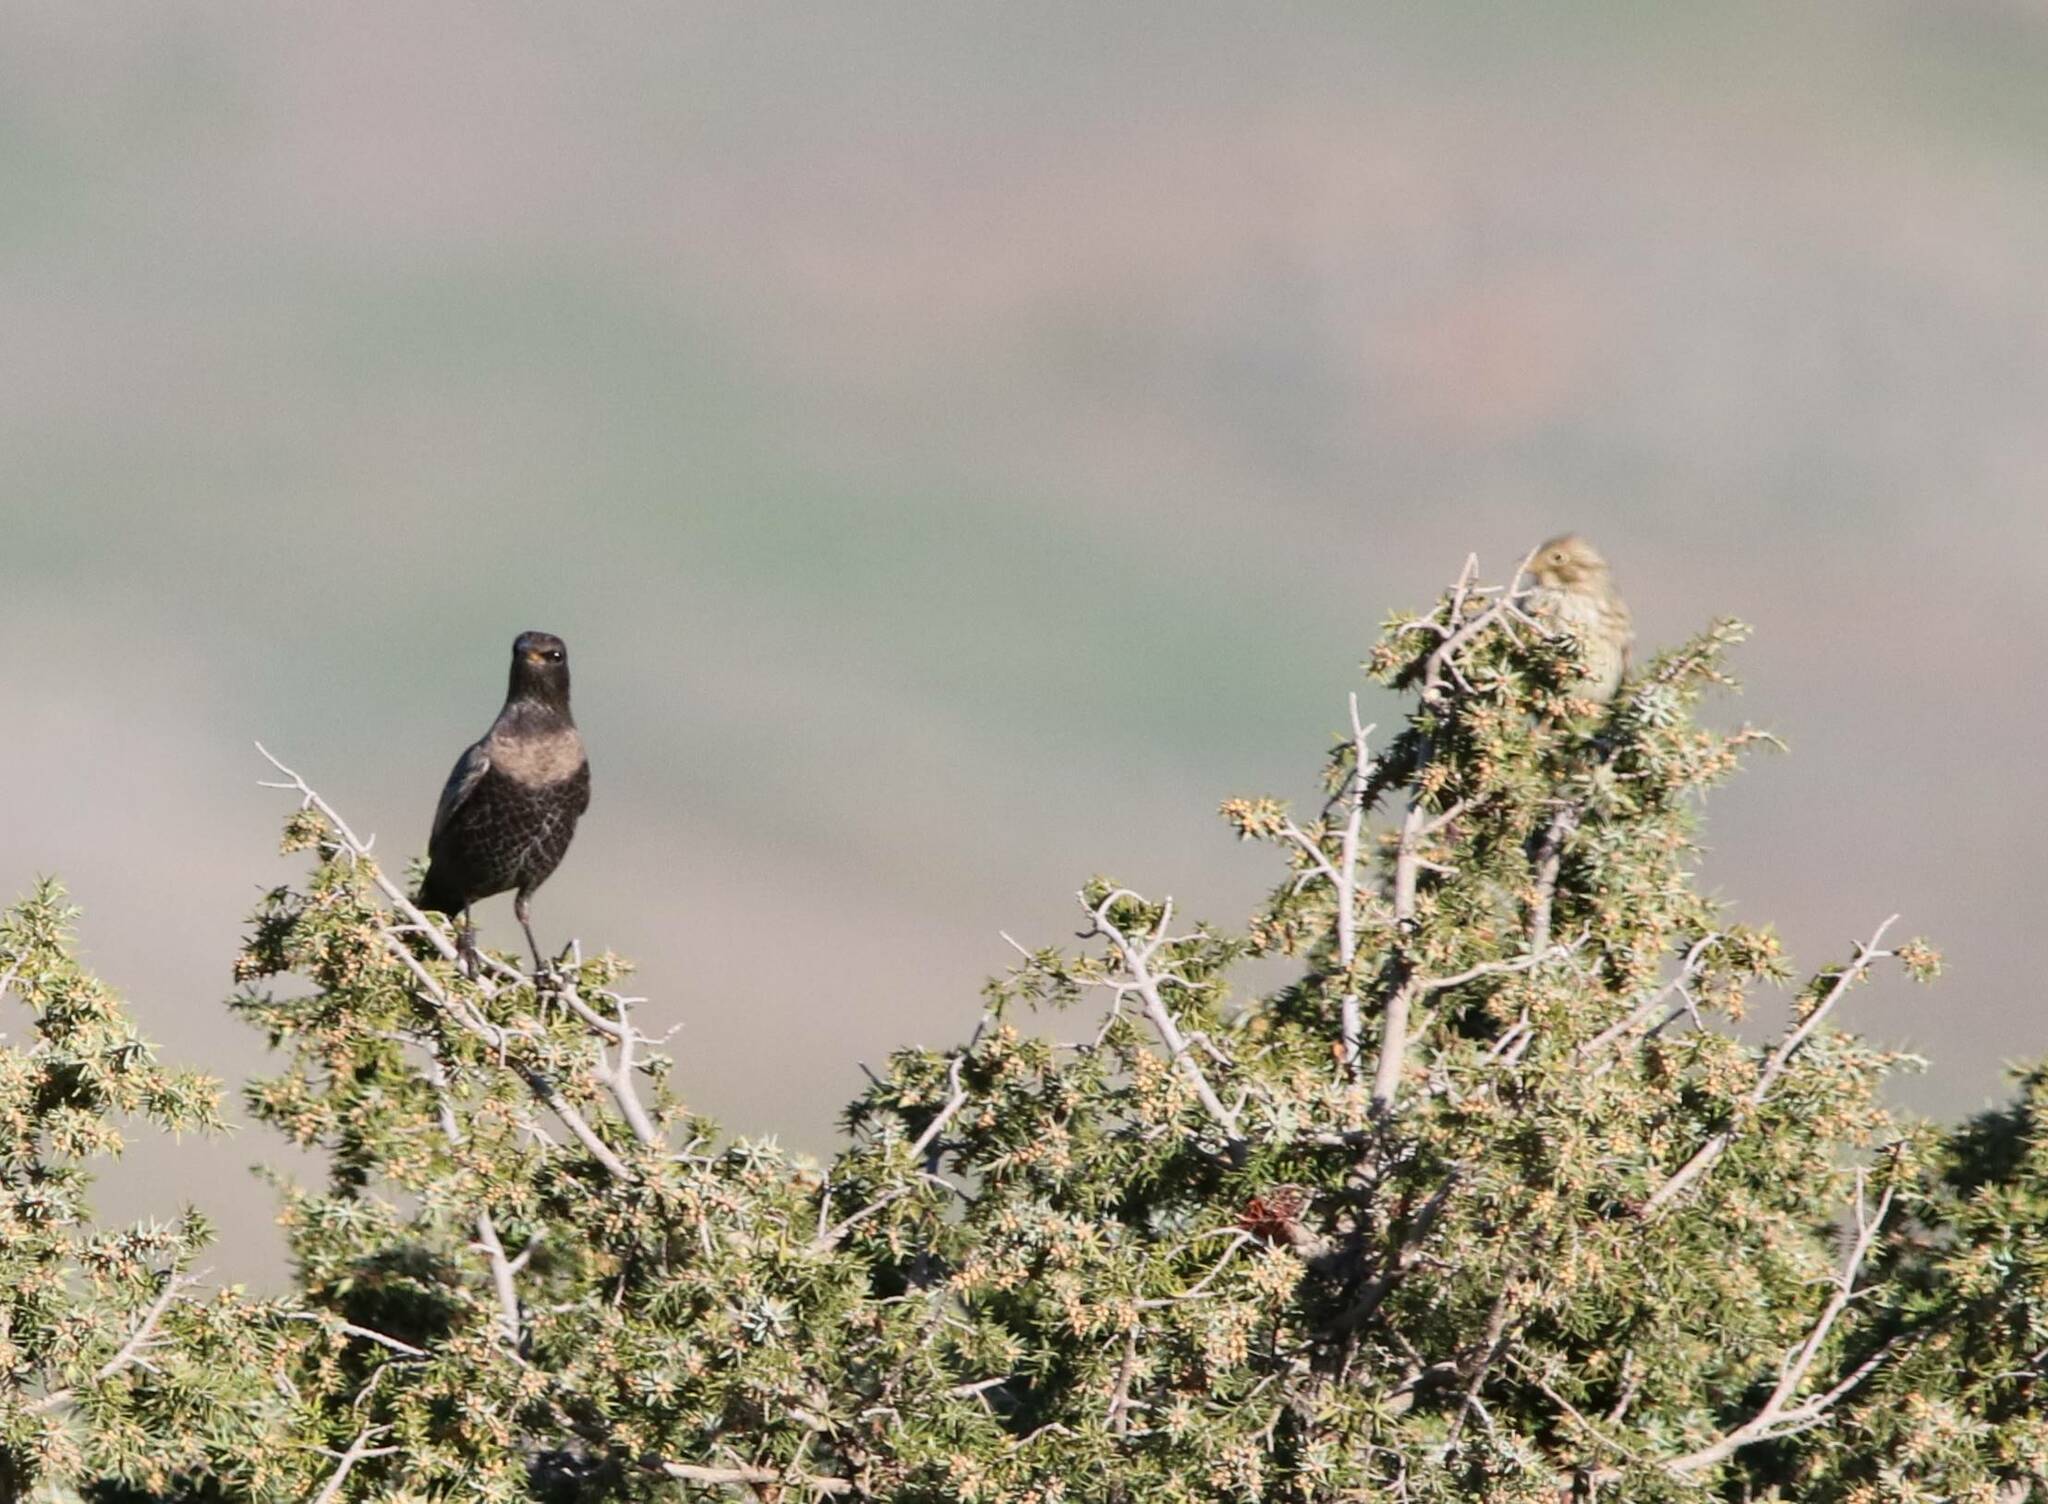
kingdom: Animalia
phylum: Chordata
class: Aves
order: Passeriformes
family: Turdidae
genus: Turdus
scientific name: Turdus torquatus
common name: Ring ouzel
